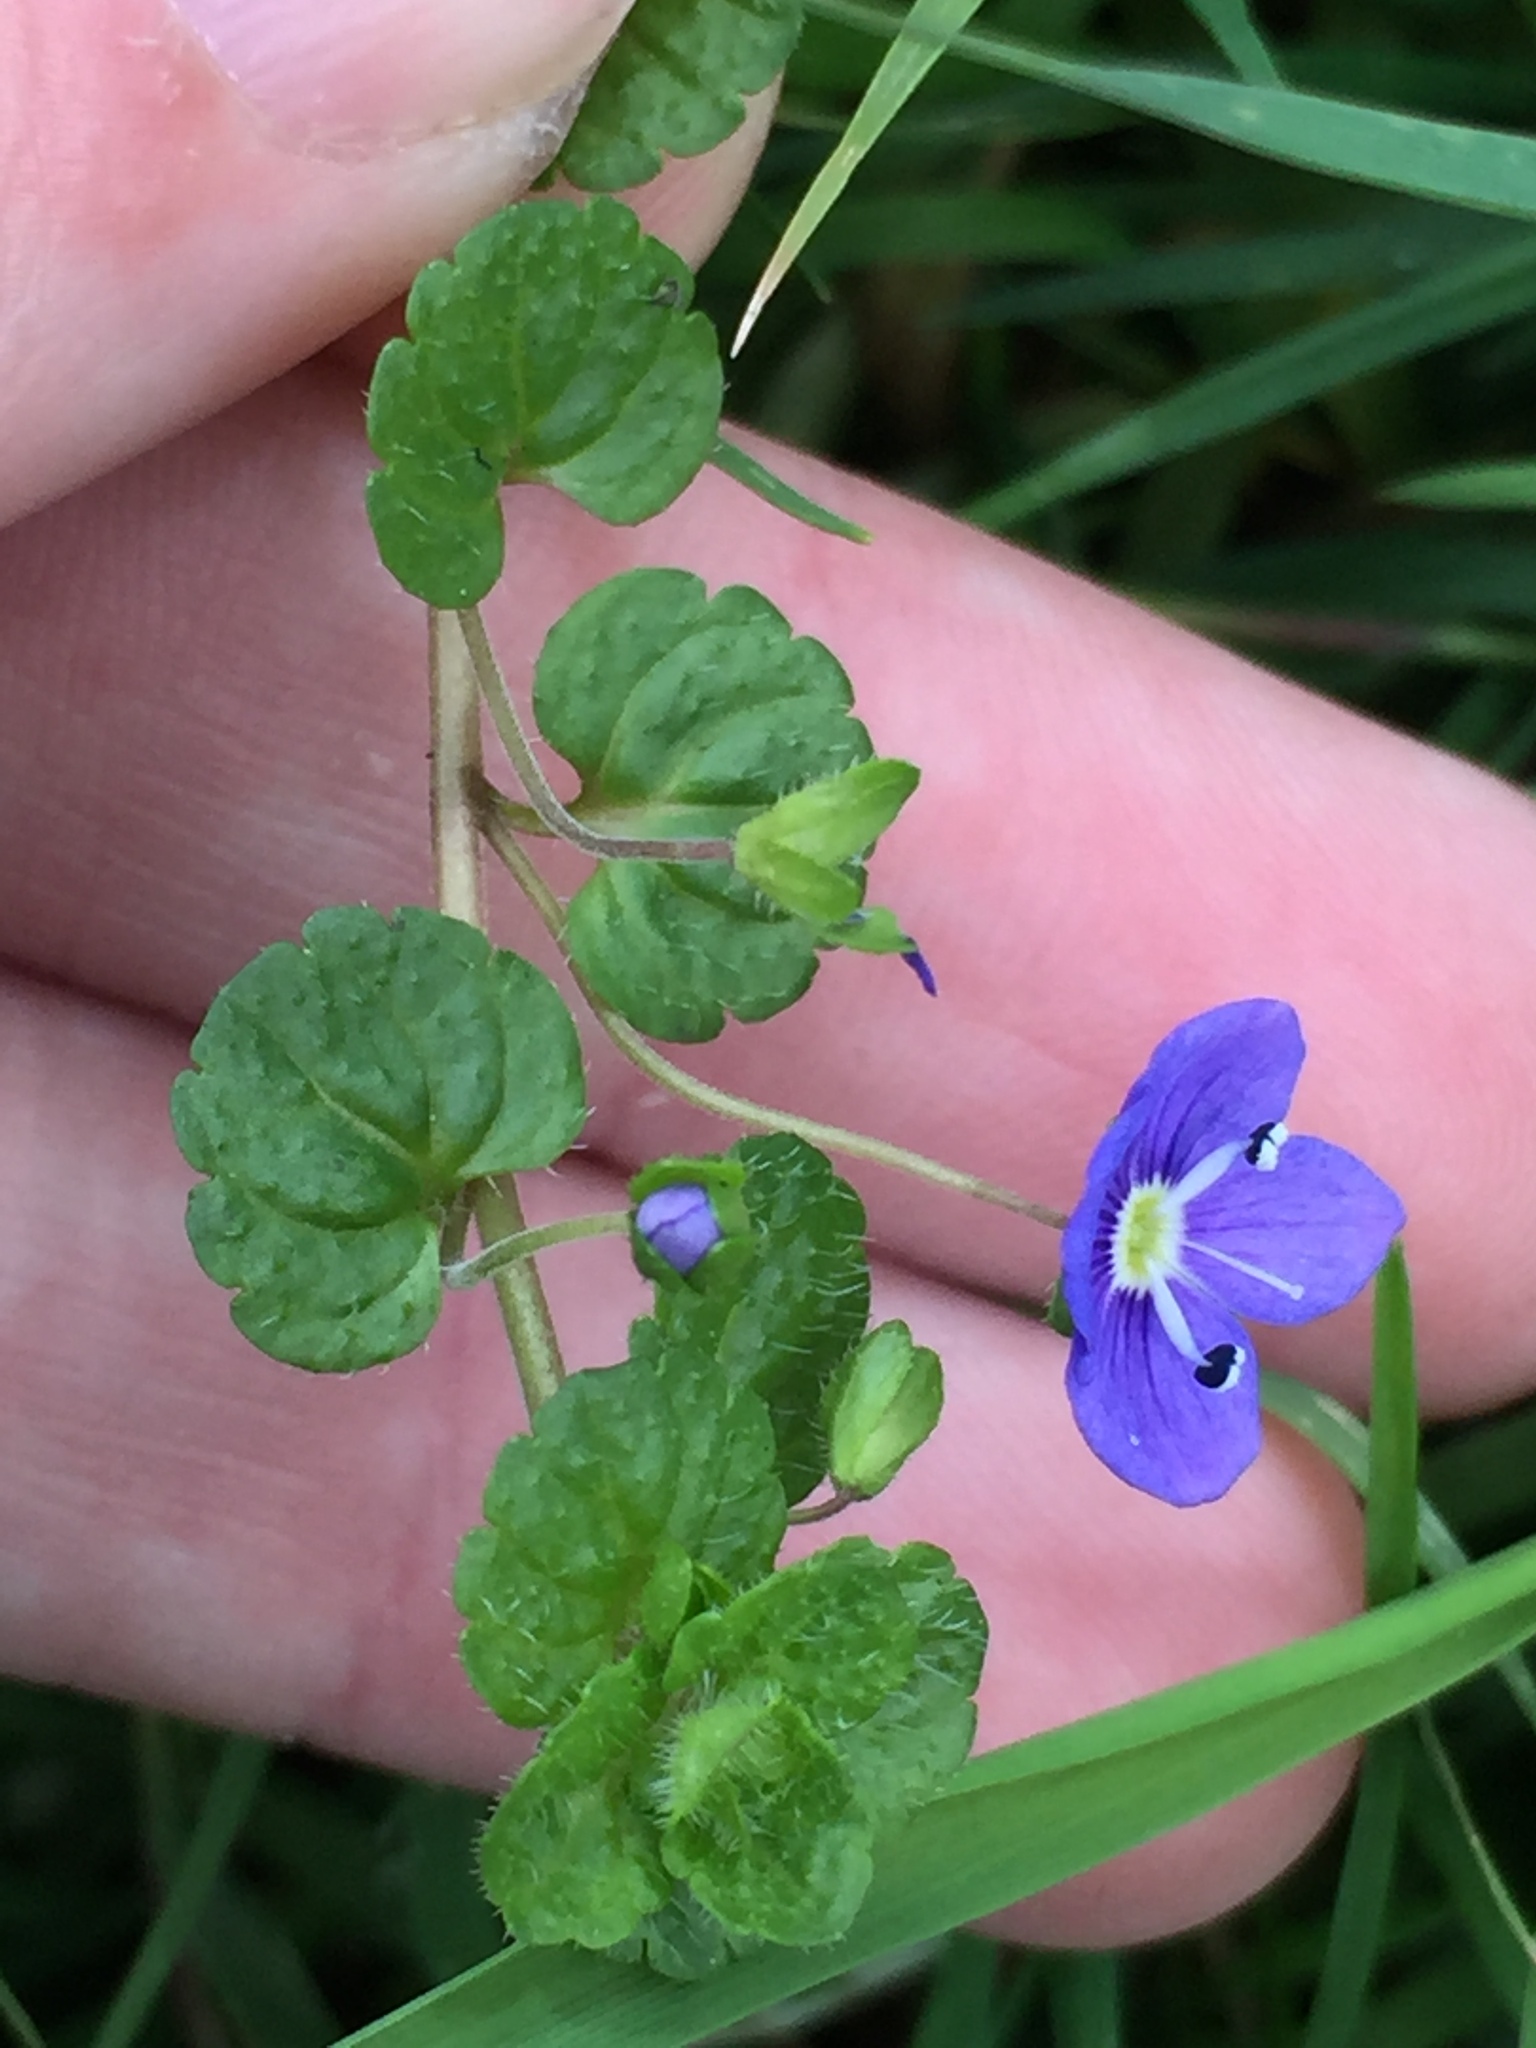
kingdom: Plantae
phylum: Tracheophyta
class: Magnoliopsida
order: Lamiales
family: Plantaginaceae
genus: Veronica
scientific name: Veronica filiformis
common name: Slender speedwell
